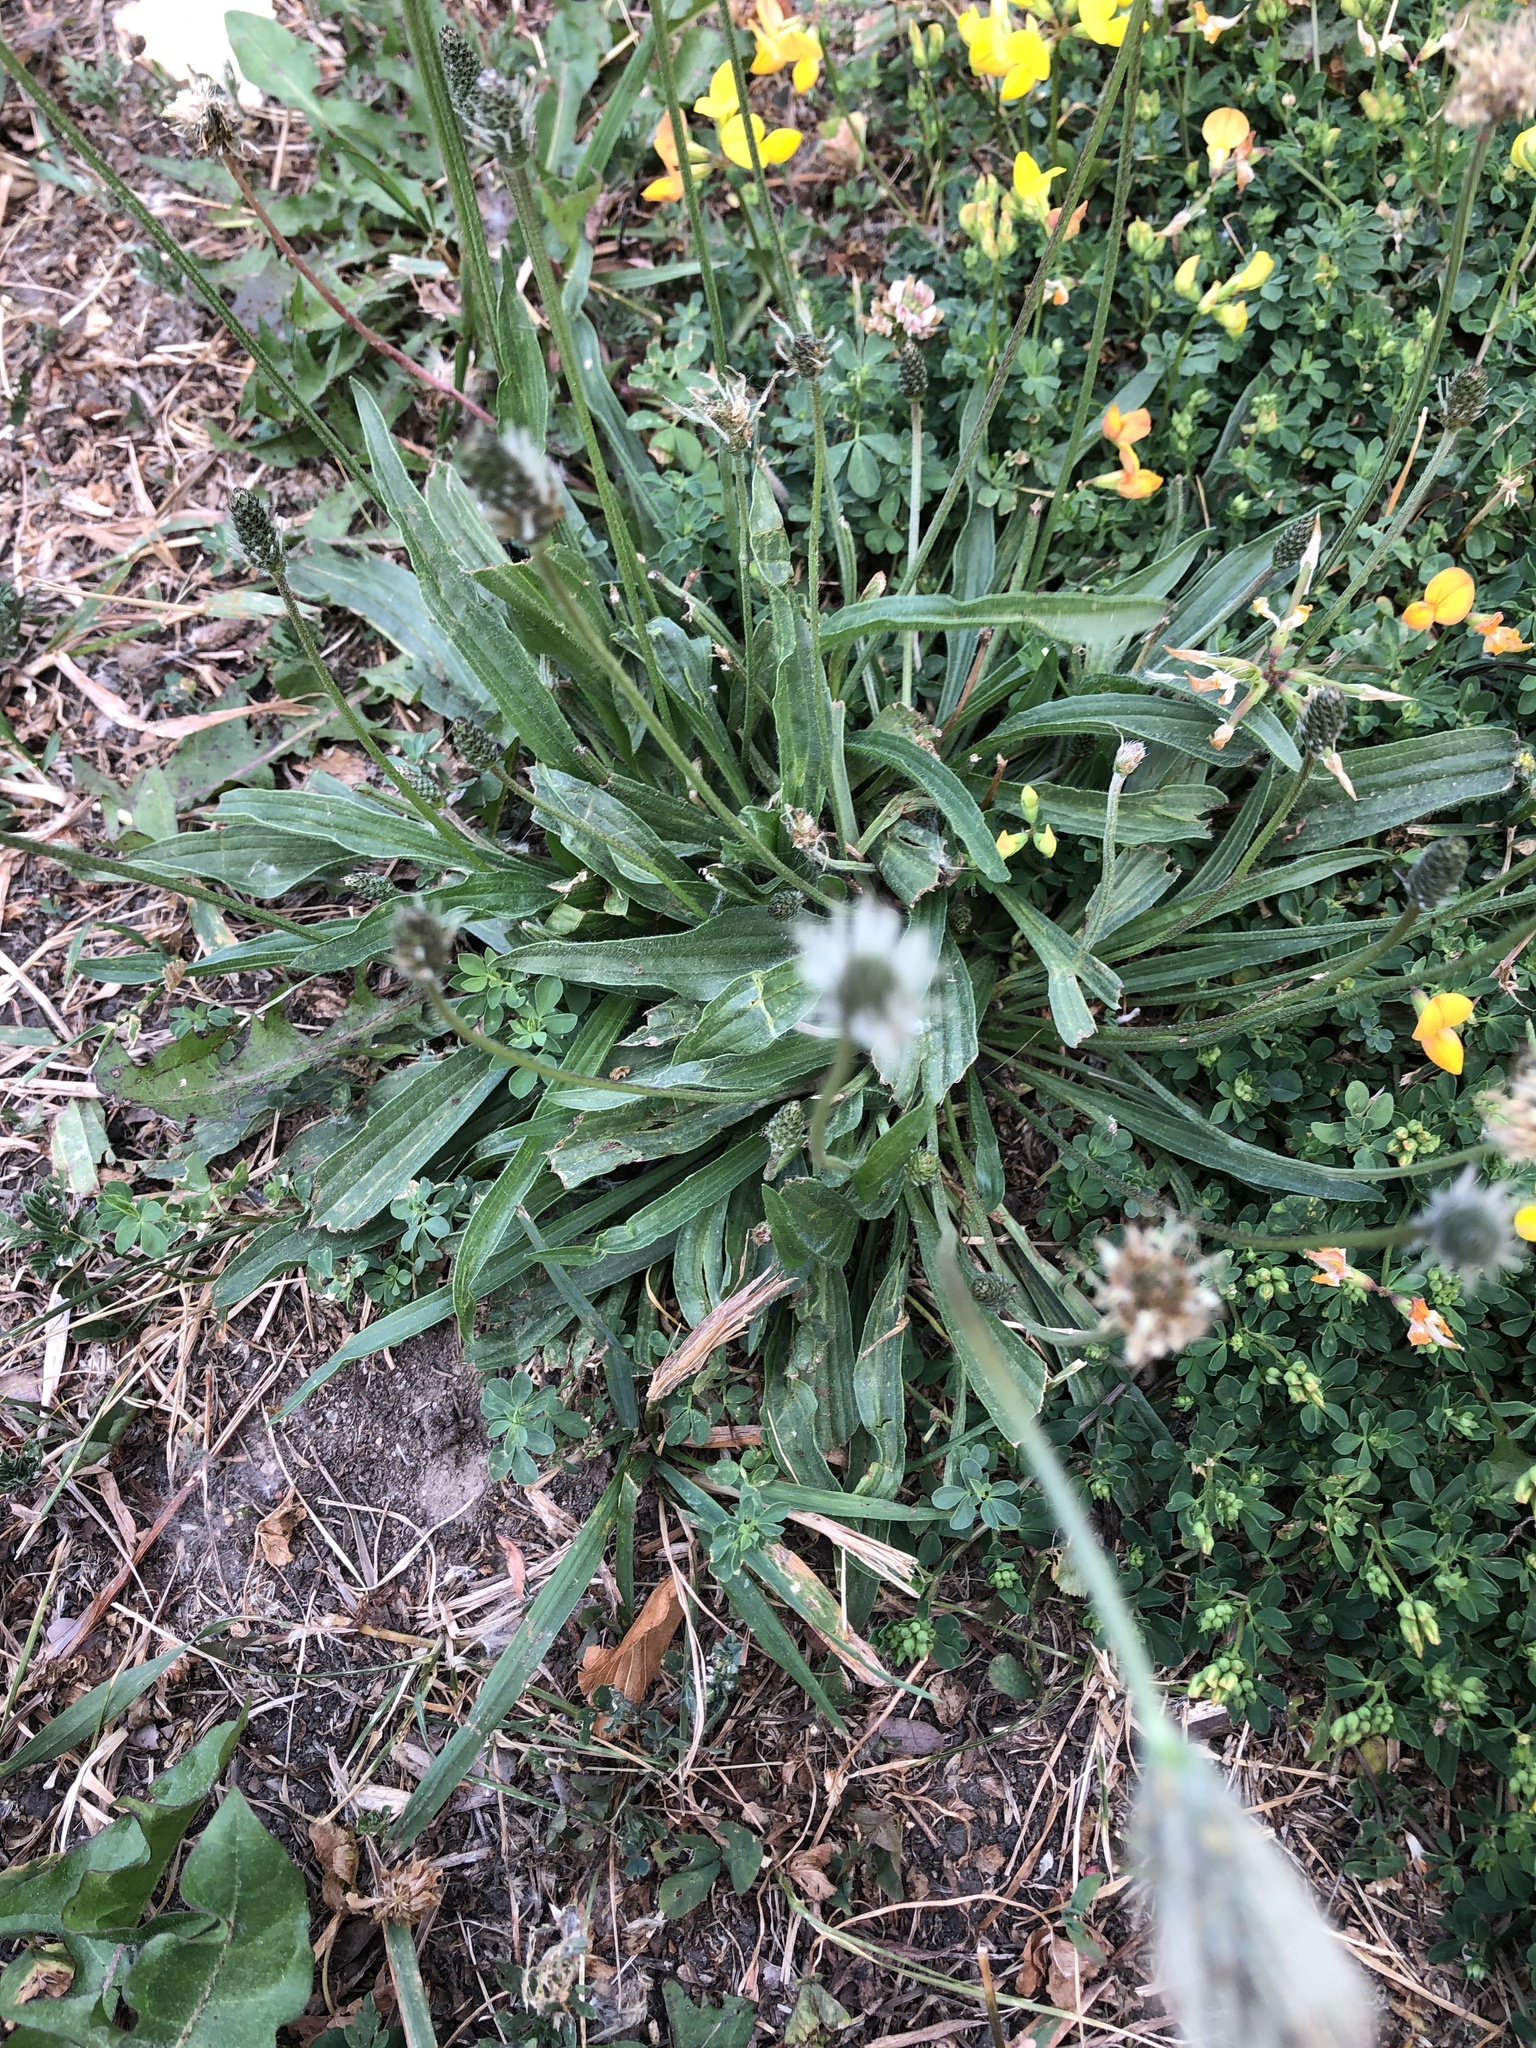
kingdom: Plantae
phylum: Tracheophyta
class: Magnoliopsida
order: Lamiales
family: Plantaginaceae
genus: Plantago
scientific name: Plantago lanceolata
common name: Ribwort plantain
